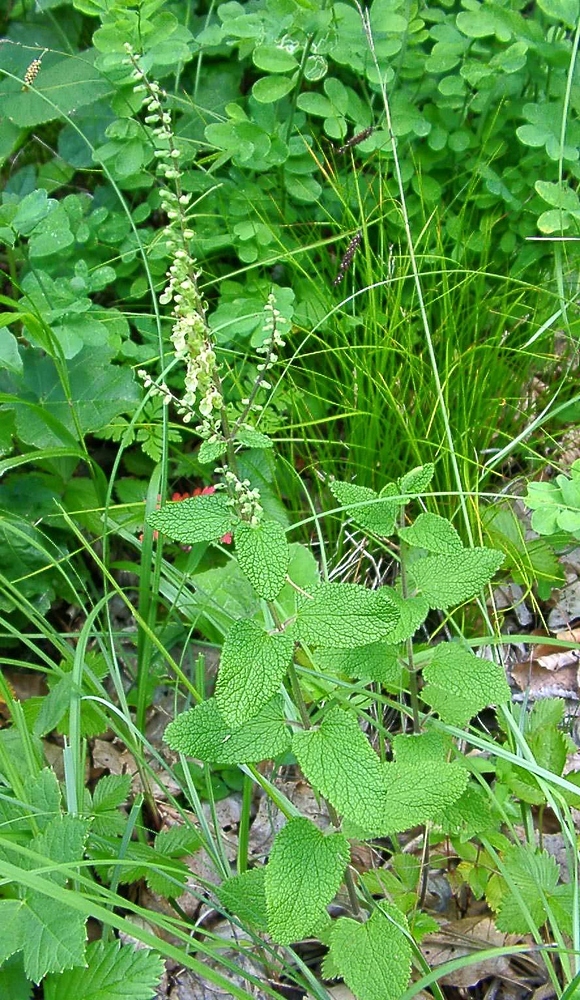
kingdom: Plantae
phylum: Tracheophyta
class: Magnoliopsida
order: Lamiales
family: Lamiaceae
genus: Teucrium
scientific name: Teucrium scorodonia
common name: Woodland germander
